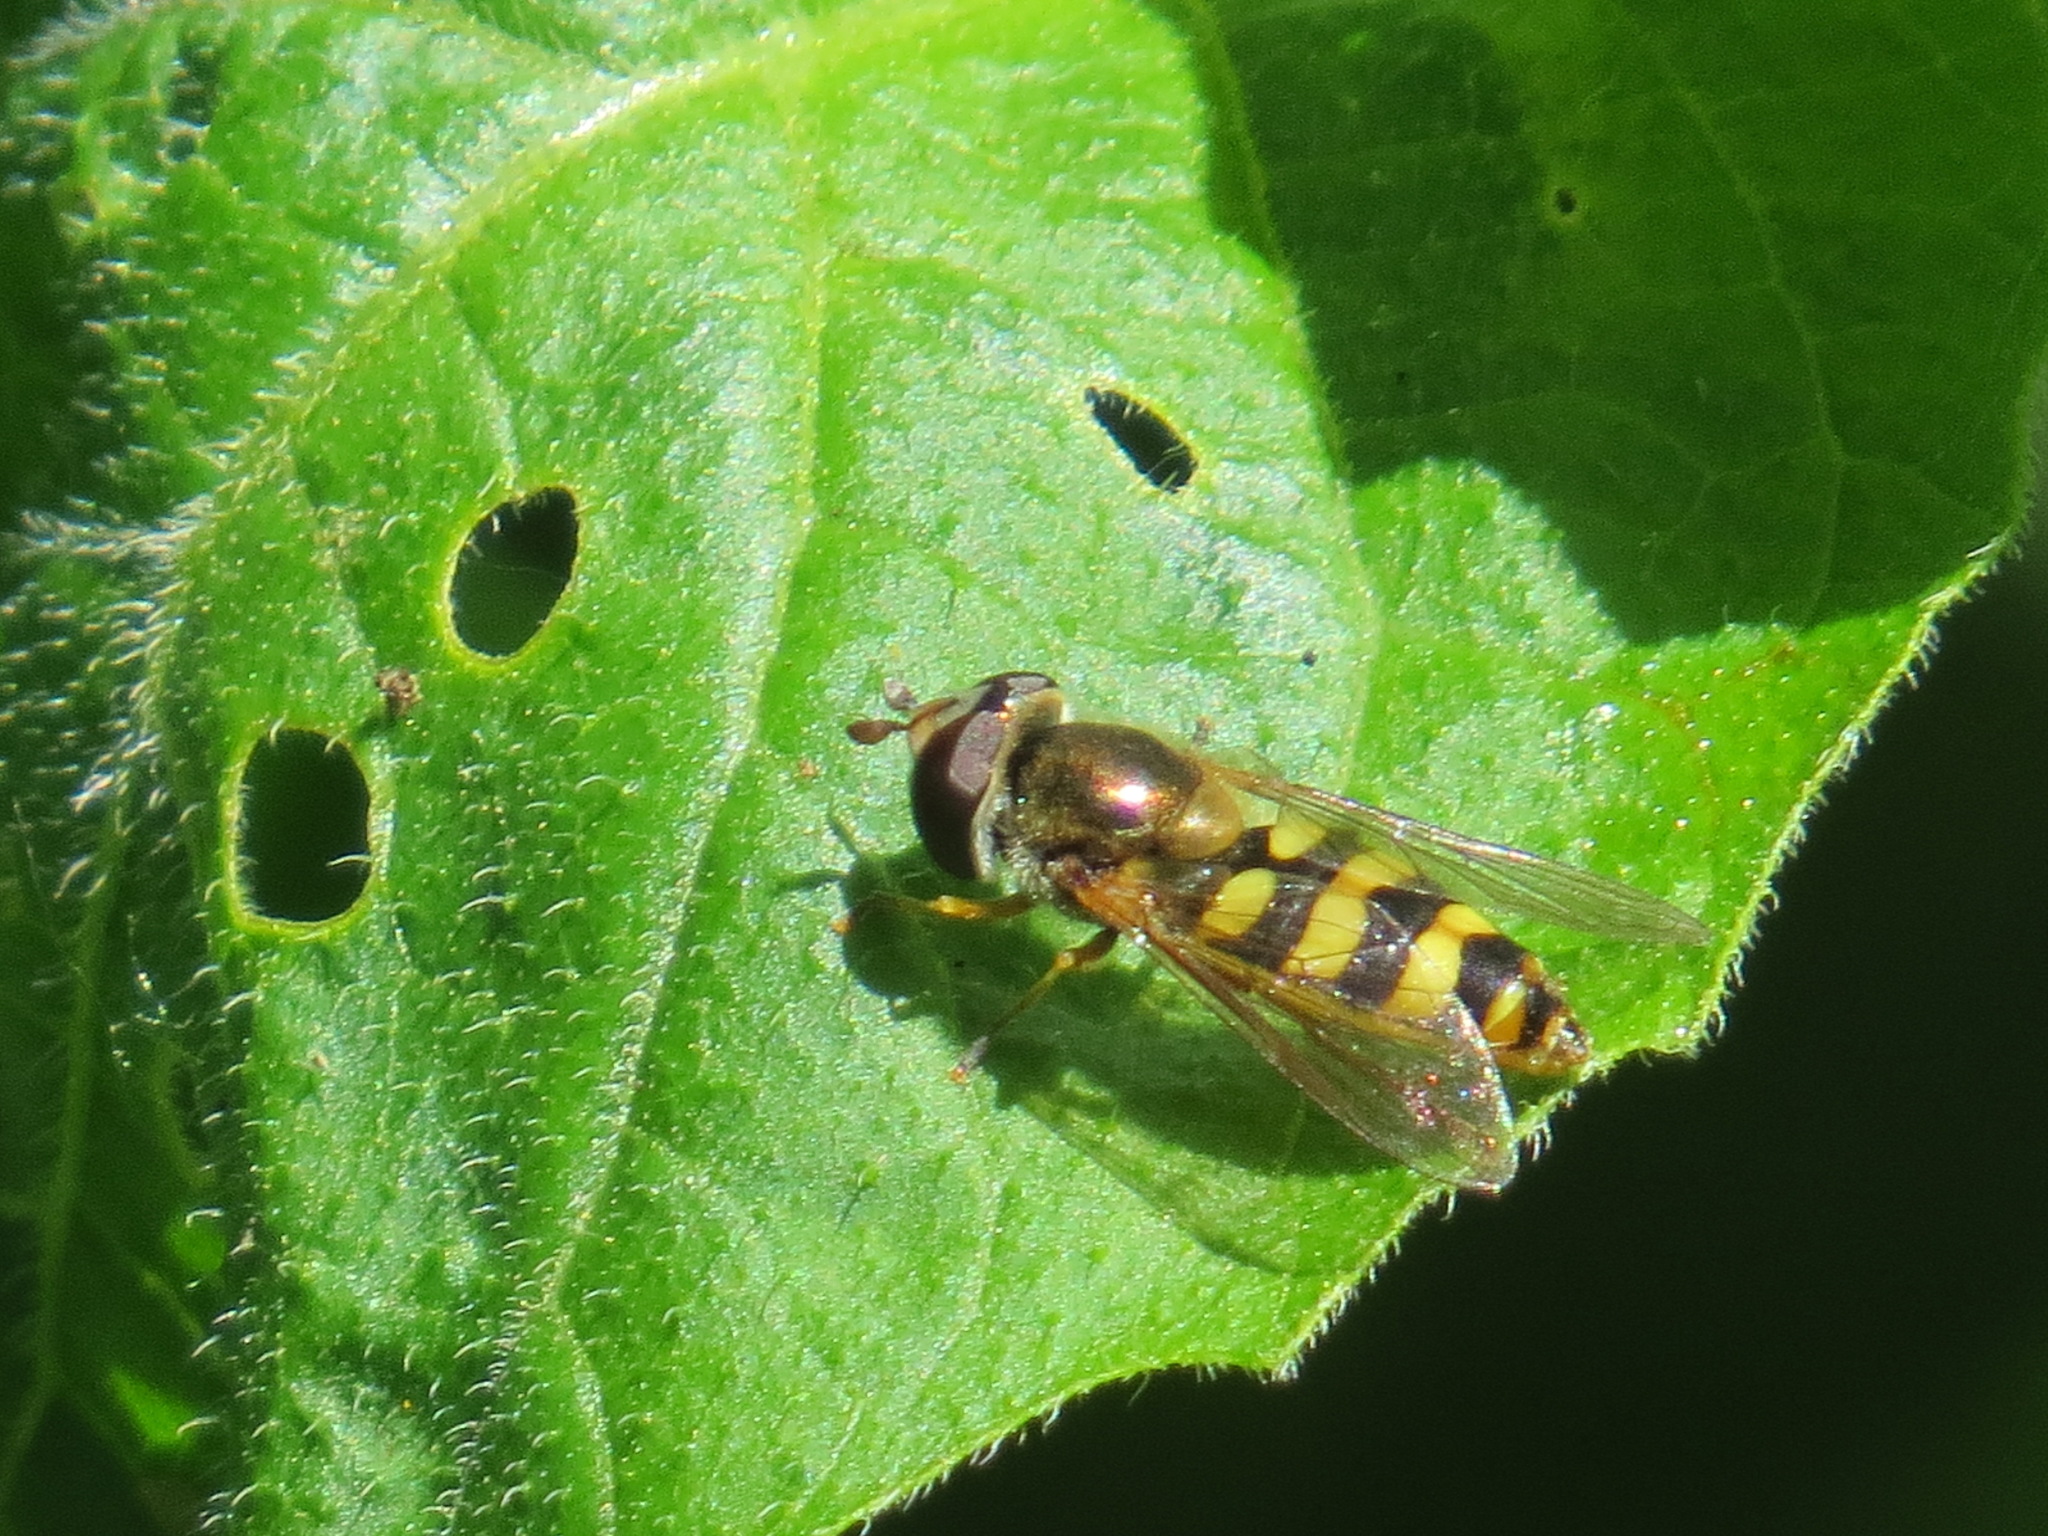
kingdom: Animalia
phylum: Arthropoda
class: Insecta
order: Diptera
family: Syrphidae
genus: Eupeodes
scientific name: Eupeodes fumipennis
